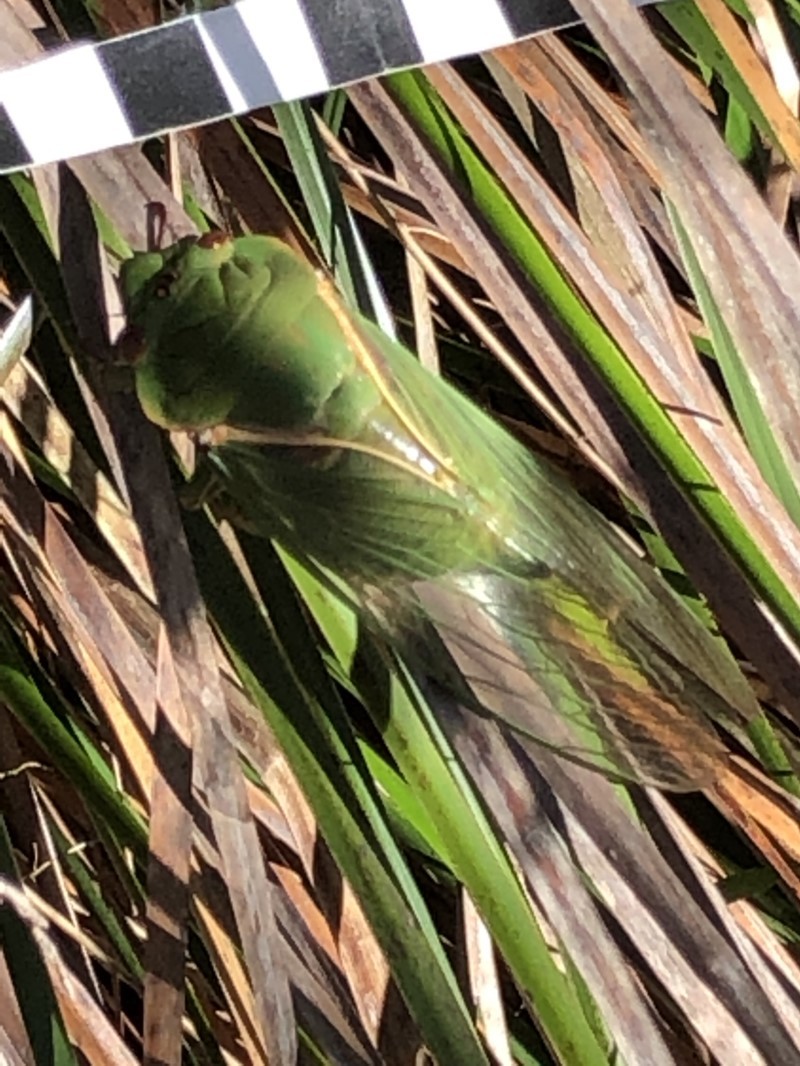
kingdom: Animalia
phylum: Arthropoda
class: Insecta
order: Hemiptera
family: Cicadidae
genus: Cyclochila
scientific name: Cyclochila australasiae
